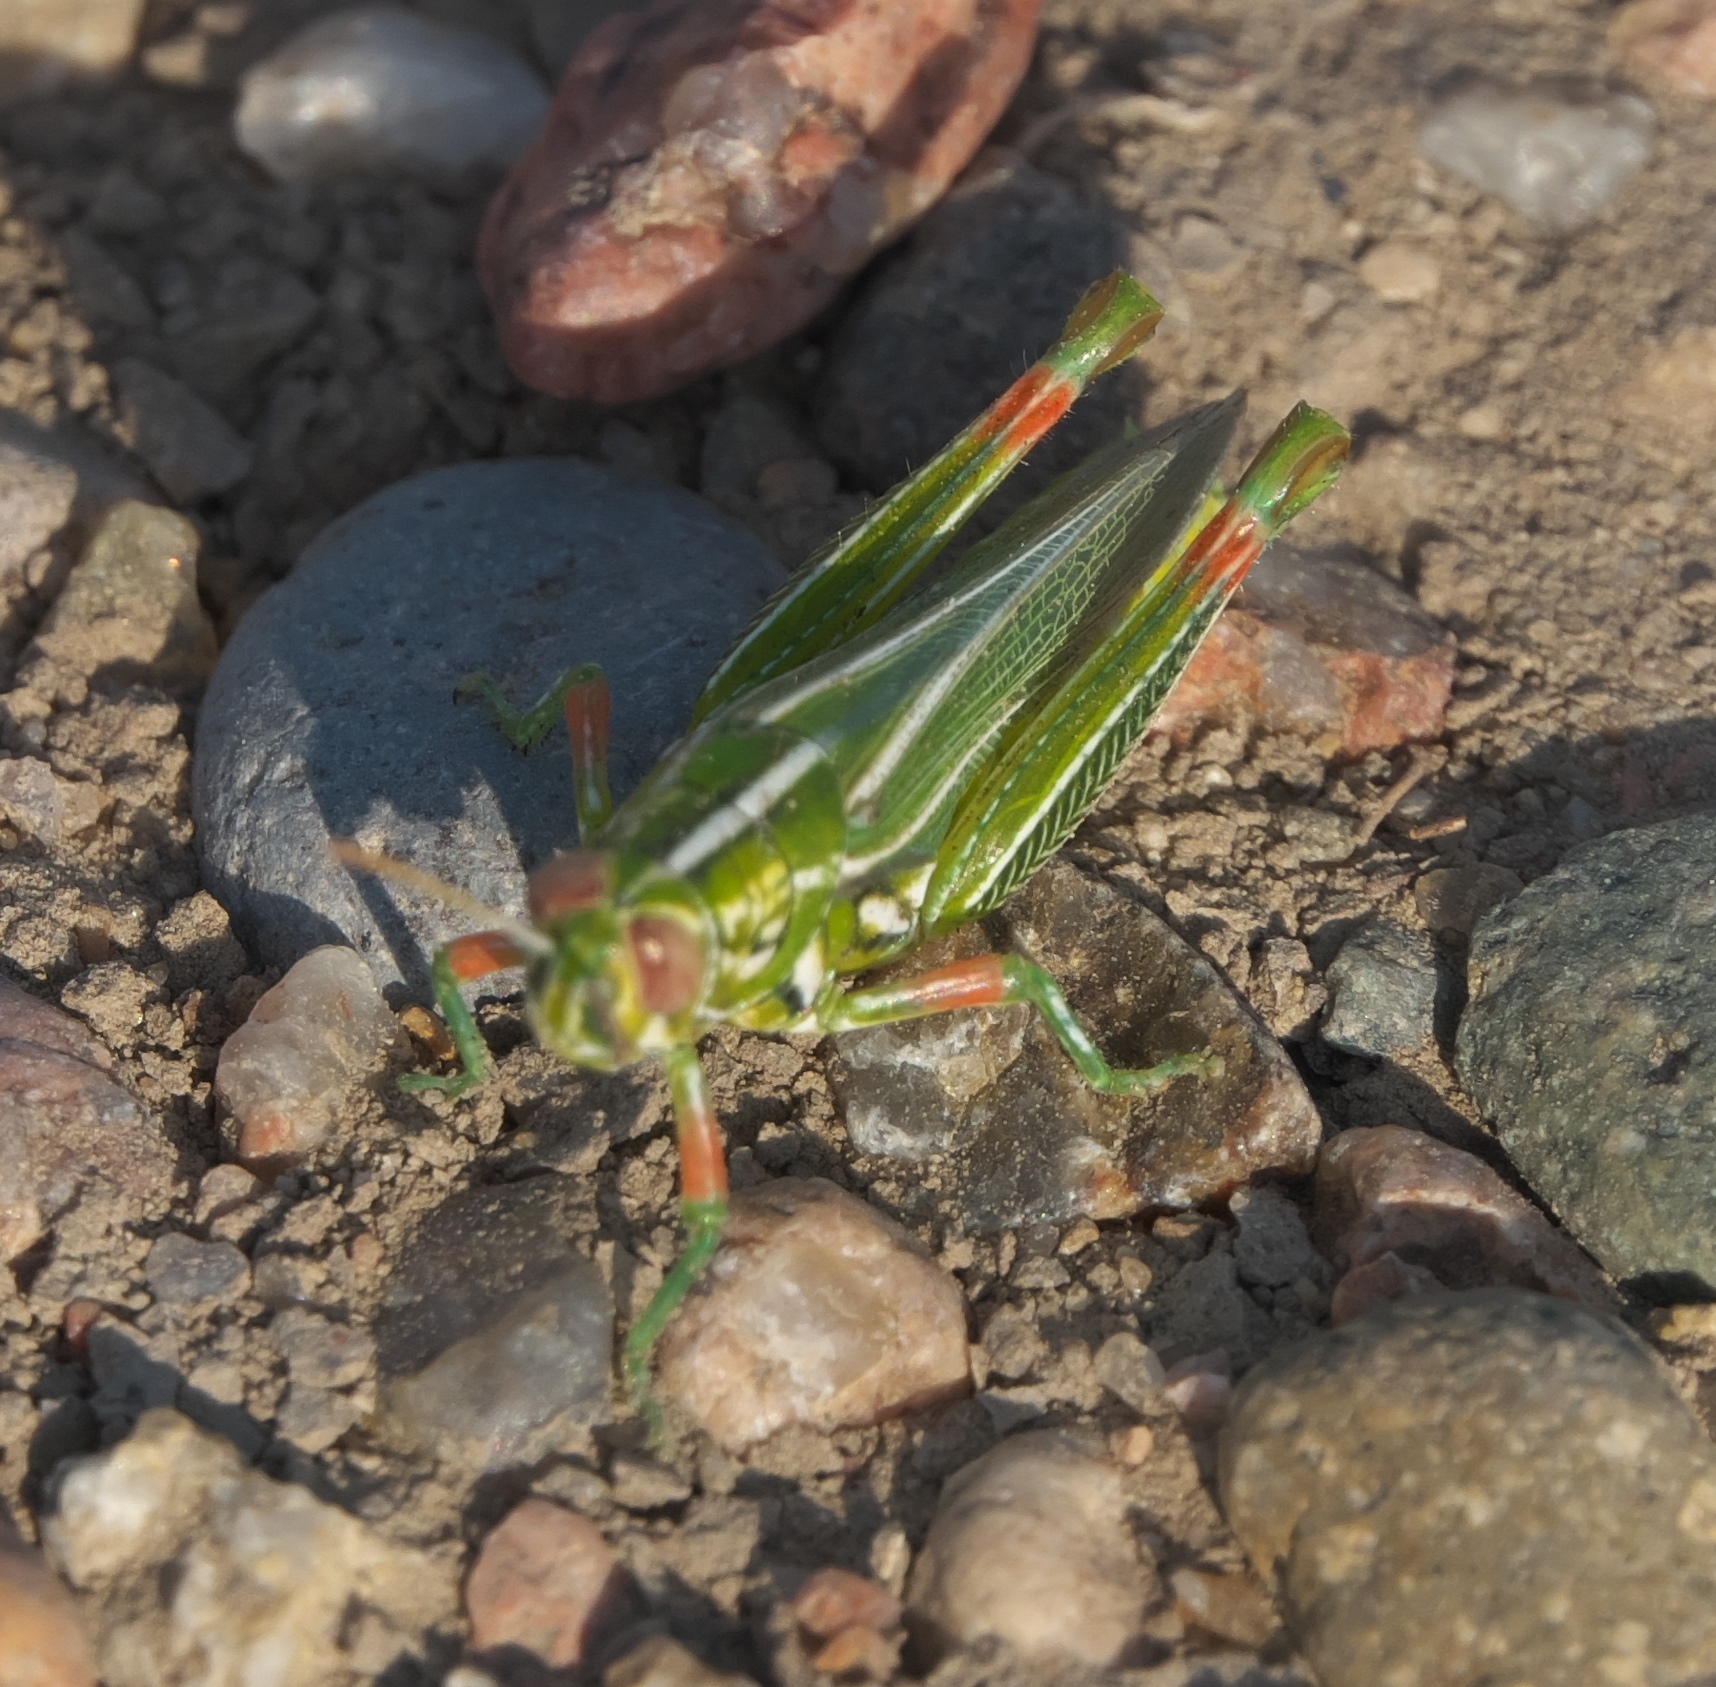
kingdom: Animalia
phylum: Arthropoda
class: Insecta
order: Orthoptera
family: Acrididae
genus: Hesperotettix
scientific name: Hesperotettix viridis
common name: Meadow purple-striped grasshopper
